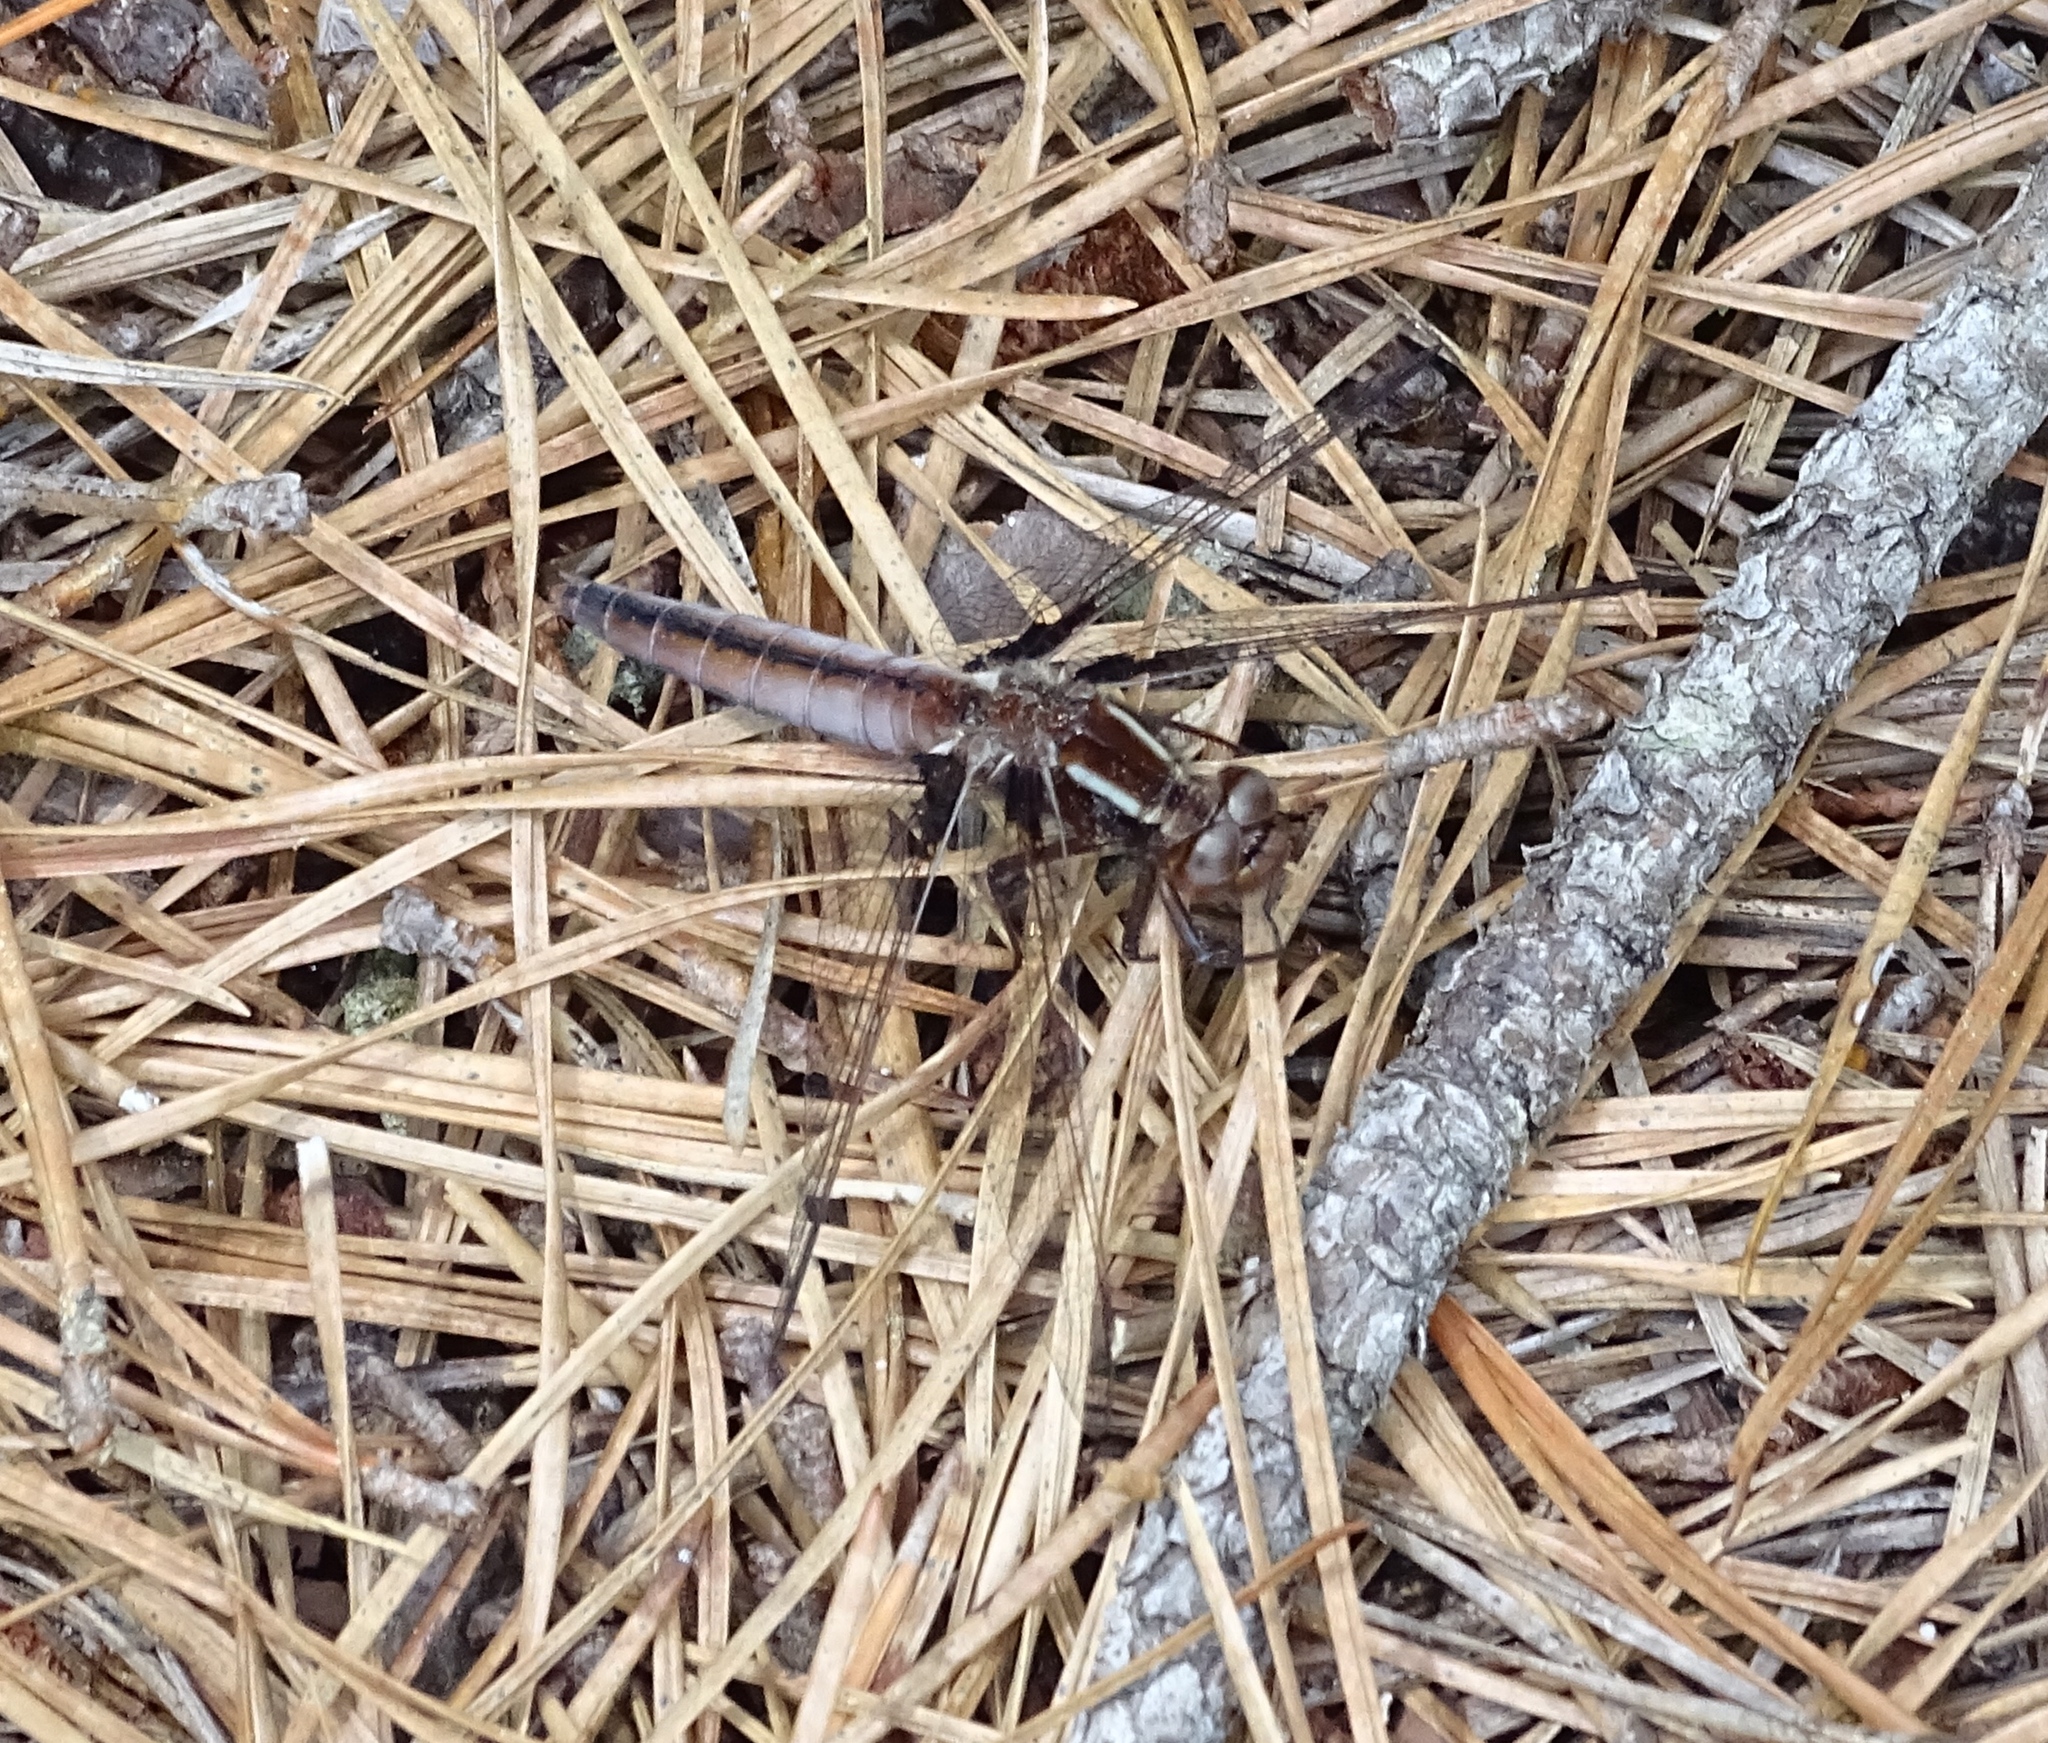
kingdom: Animalia
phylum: Arthropoda
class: Insecta
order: Odonata
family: Libellulidae
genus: Ladona
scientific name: Ladona exusta
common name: Libellule embrasée
